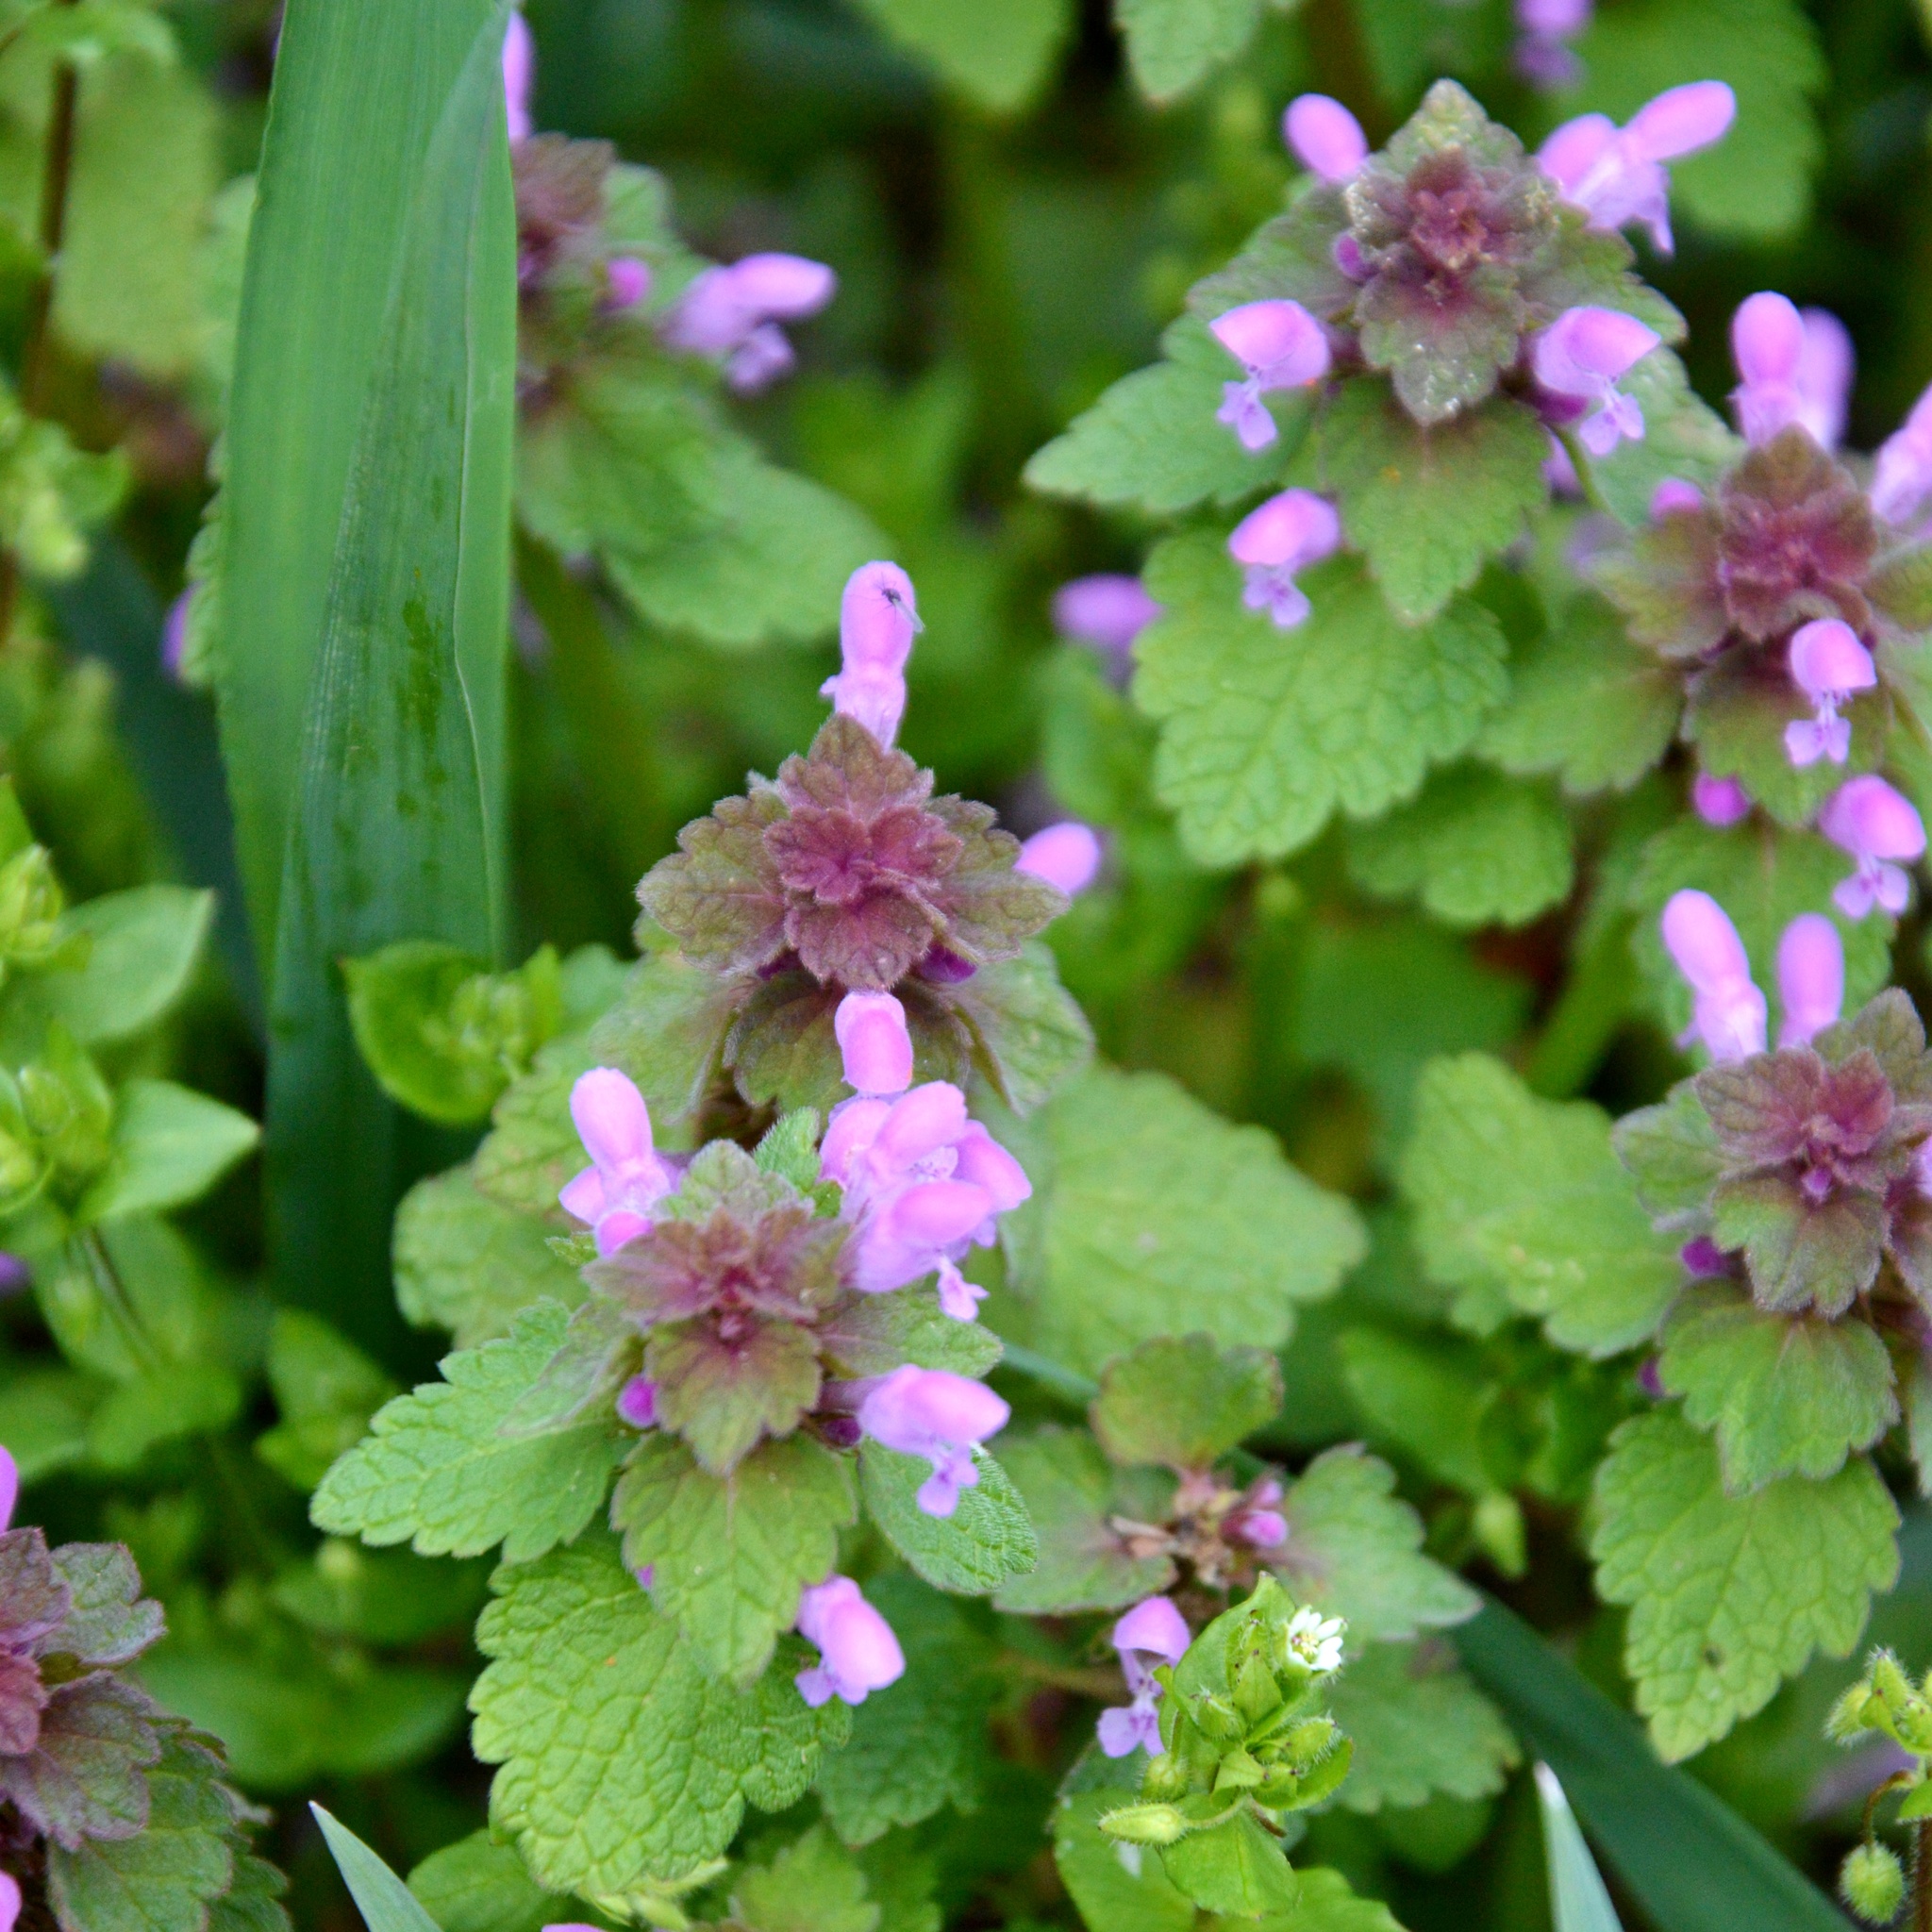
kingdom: Plantae
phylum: Tracheophyta
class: Magnoliopsida
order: Lamiales
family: Lamiaceae
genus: Lamium
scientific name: Lamium purpureum
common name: Red dead-nettle
